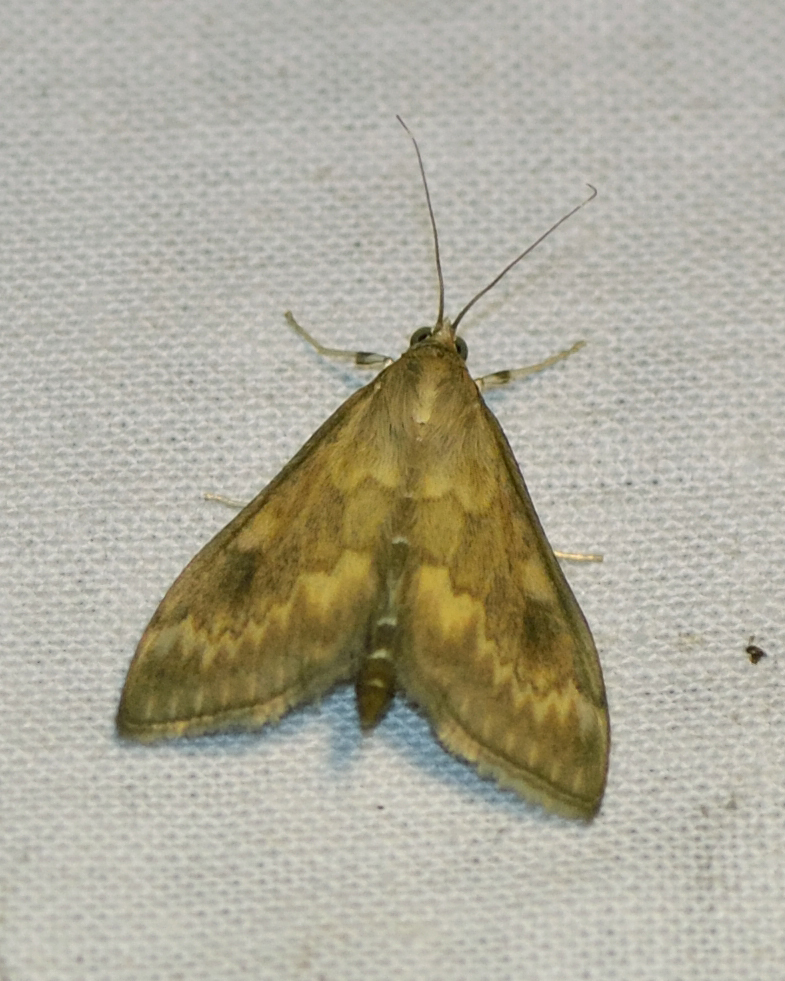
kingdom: Animalia
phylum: Arthropoda
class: Insecta
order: Lepidoptera
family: Crambidae
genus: Ostrinia
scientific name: Ostrinia nubilalis
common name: European corn borer
